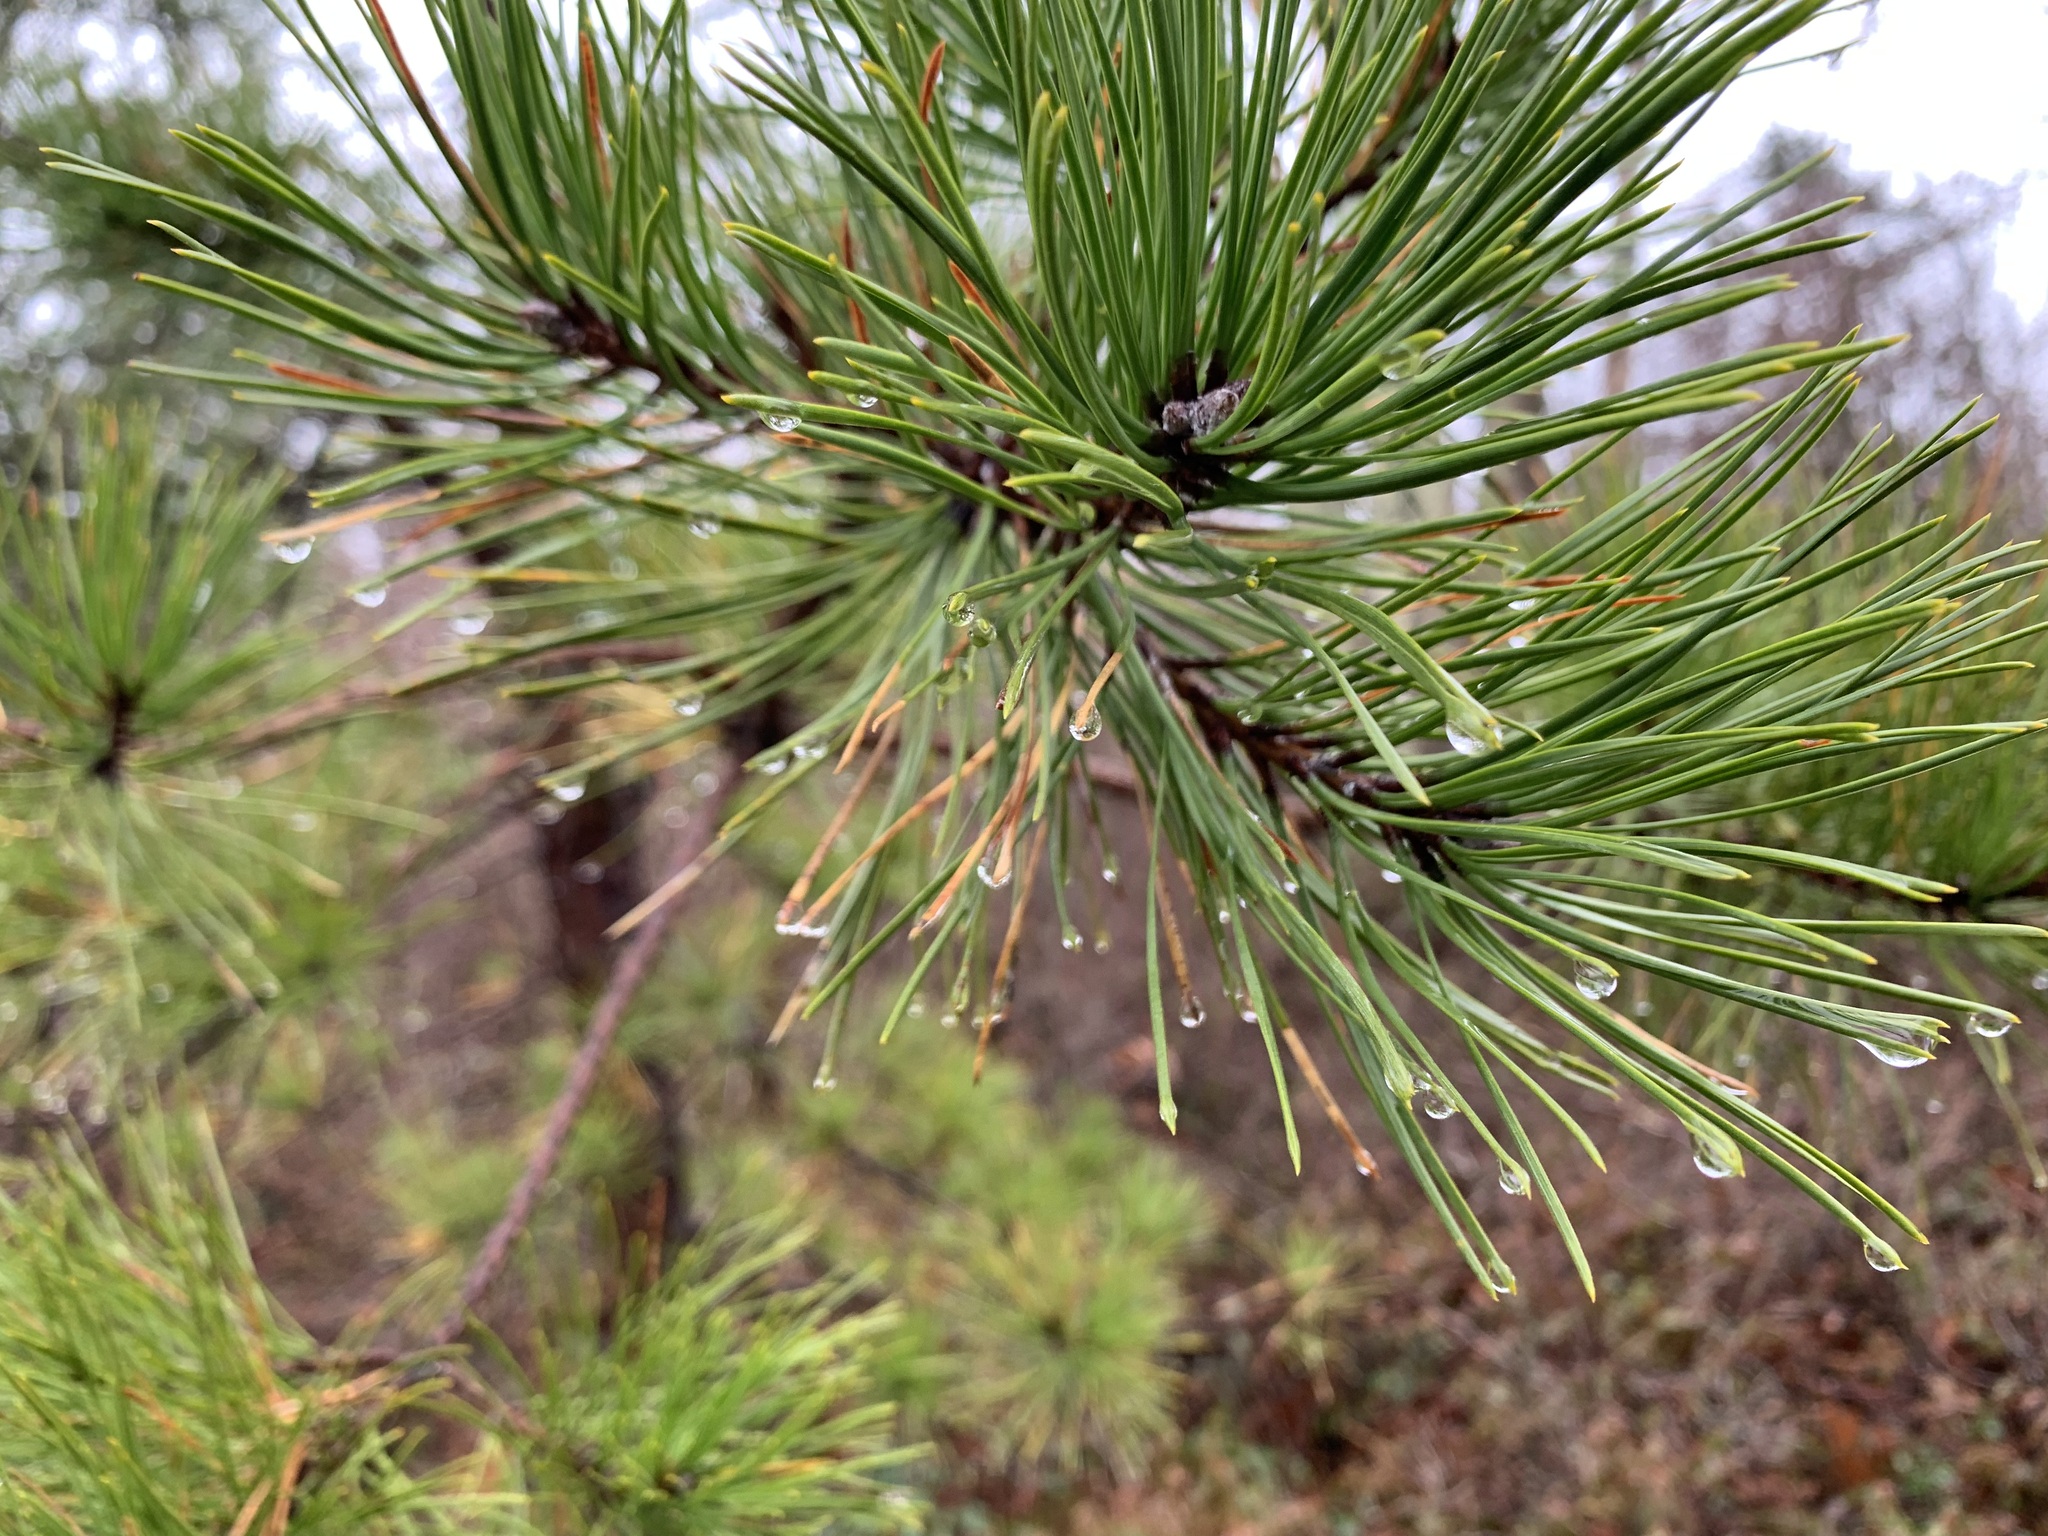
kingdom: Plantae
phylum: Tracheophyta
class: Pinopsida
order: Pinales
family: Pinaceae
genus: Pinus
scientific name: Pinus rigida
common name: Pitch pine
